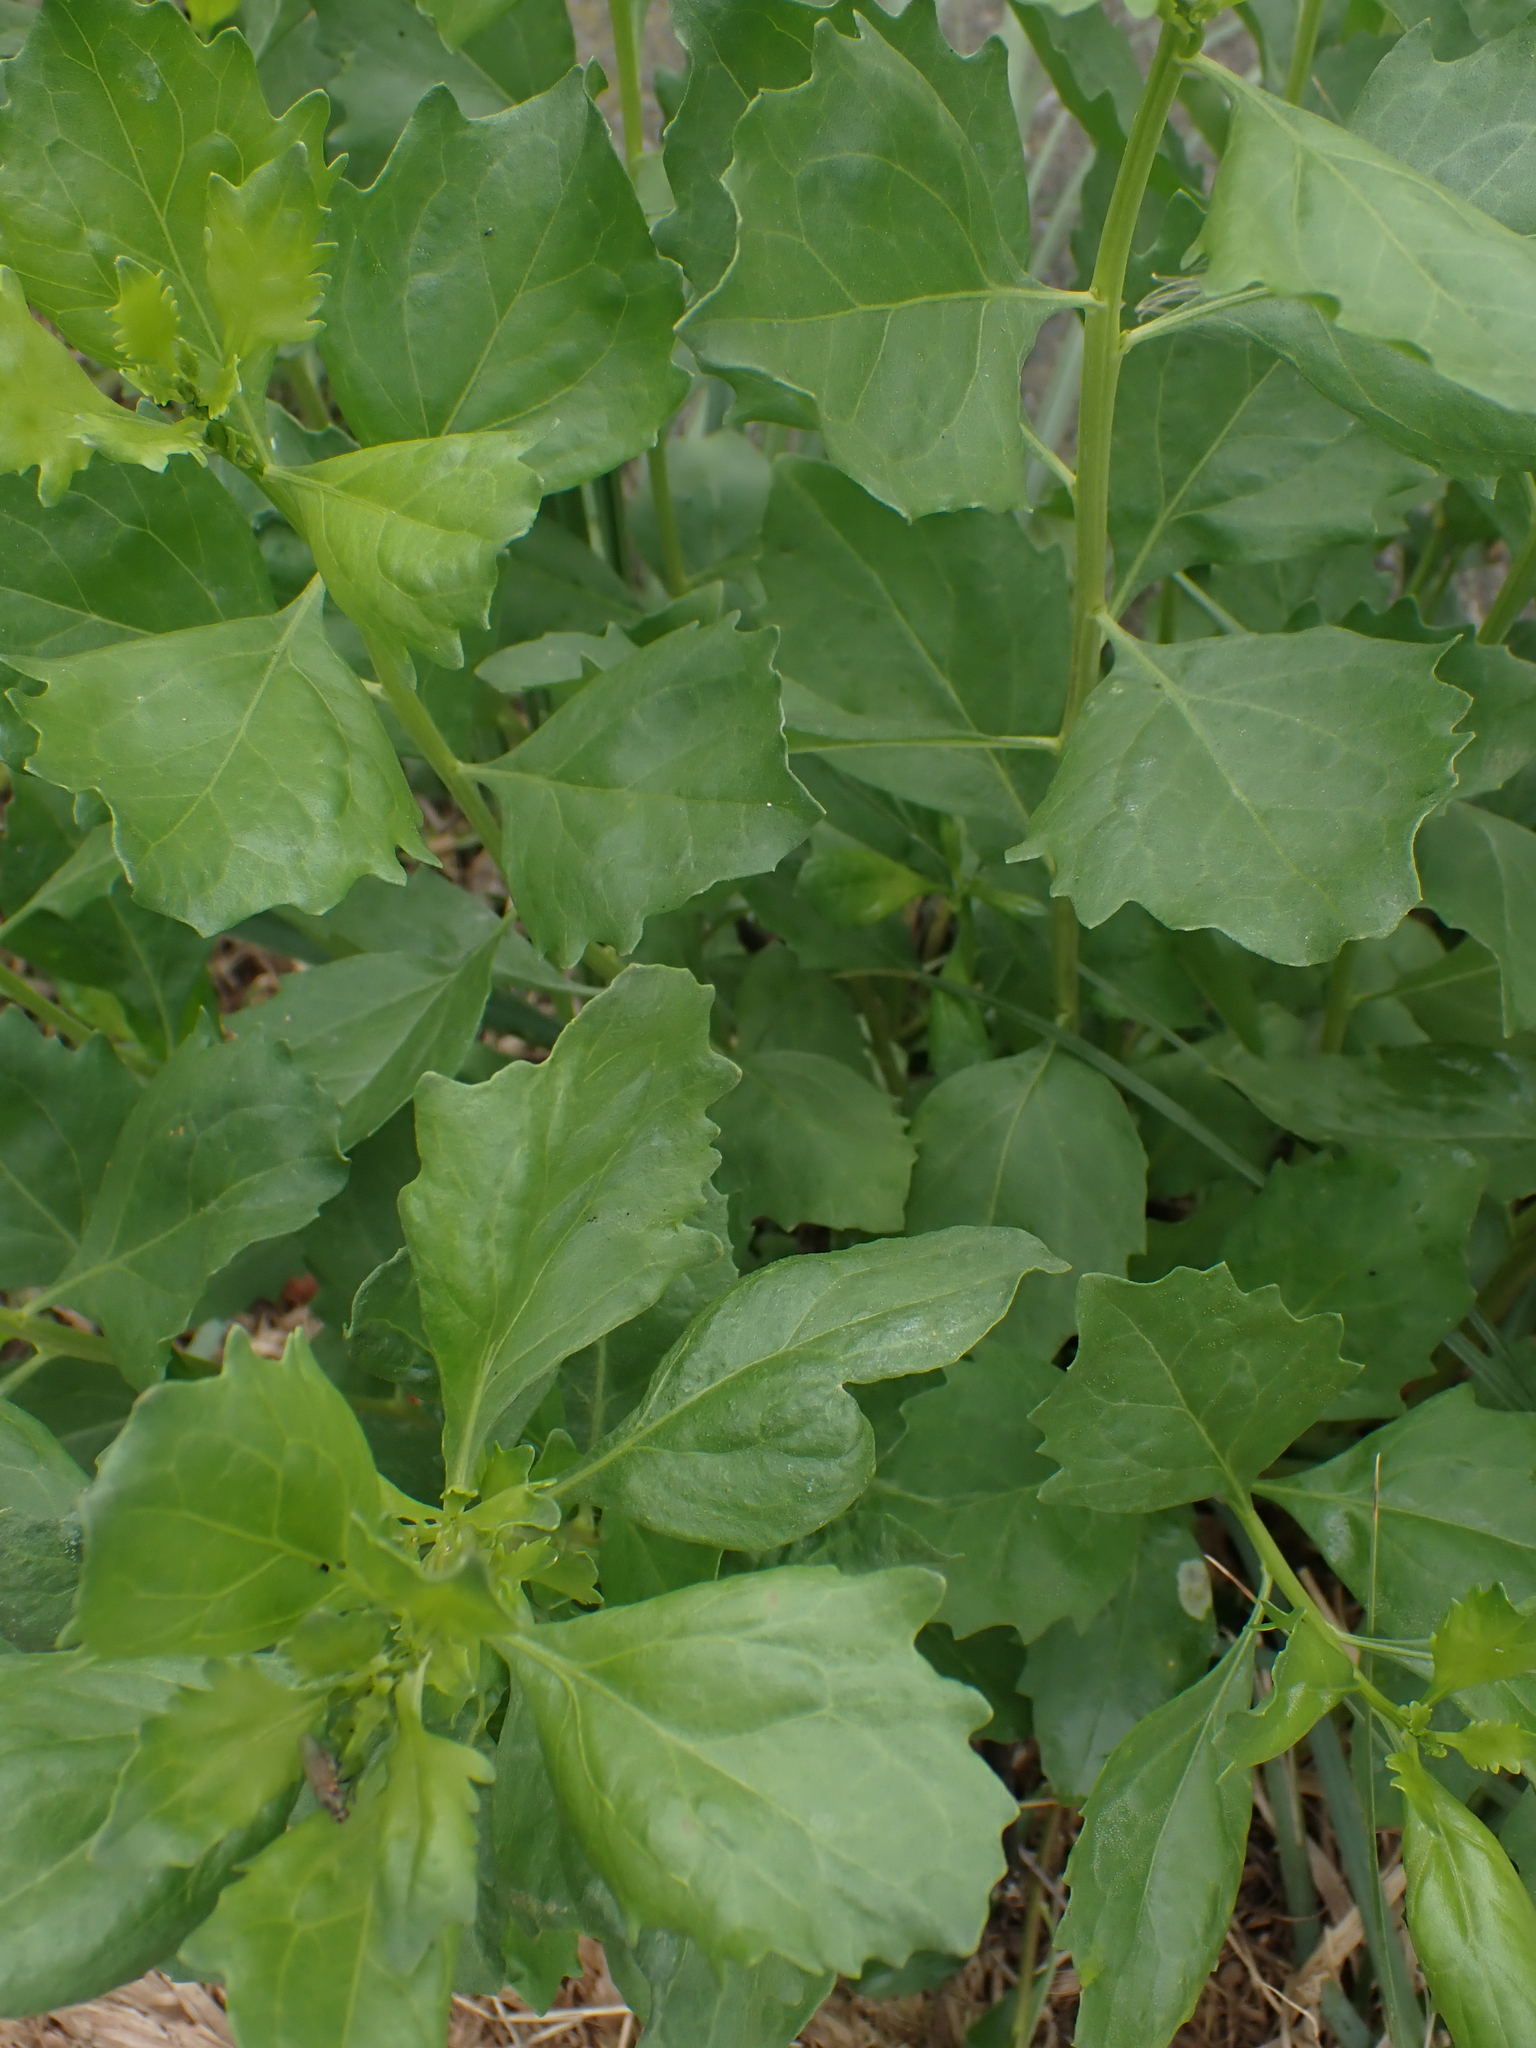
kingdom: Plantae
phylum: Tracheophyta
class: Magnoliopsida
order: Asterales
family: Asteraceae
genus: Baccharis
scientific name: Baccharis halimifolia
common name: Eastern baccharis
